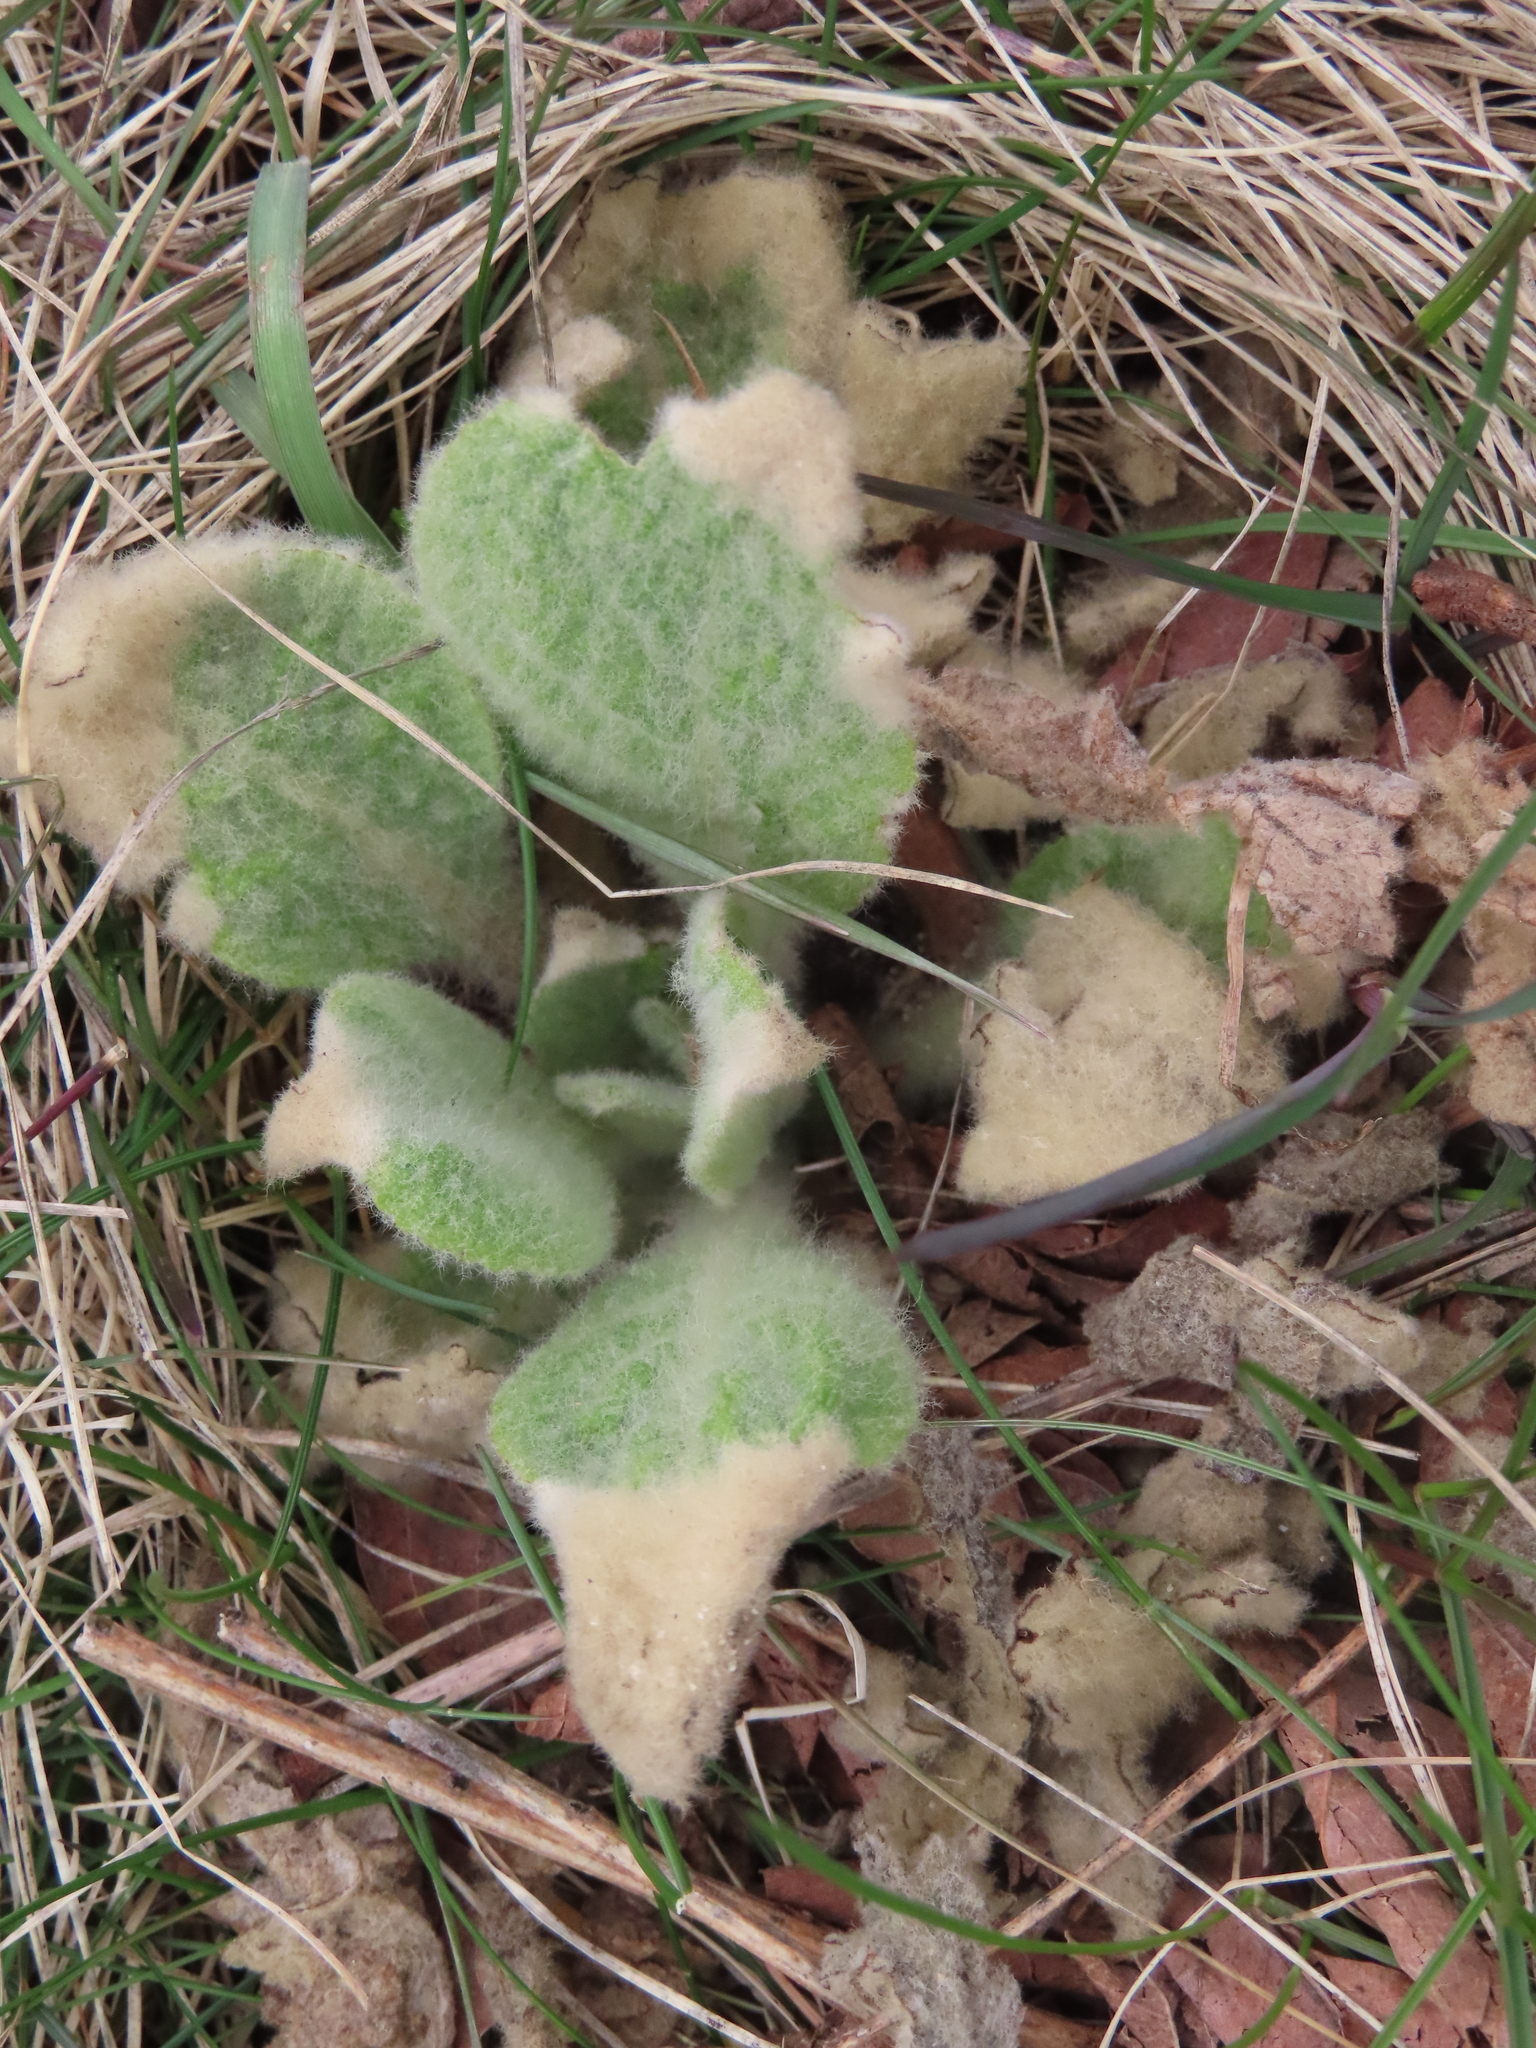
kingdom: Plantae
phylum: Tracheophyta
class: Magnoliopsida
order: Lamiales
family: Scrophulariaceae
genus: Verbascum
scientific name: Verbascum thapsus
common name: Common mullein
